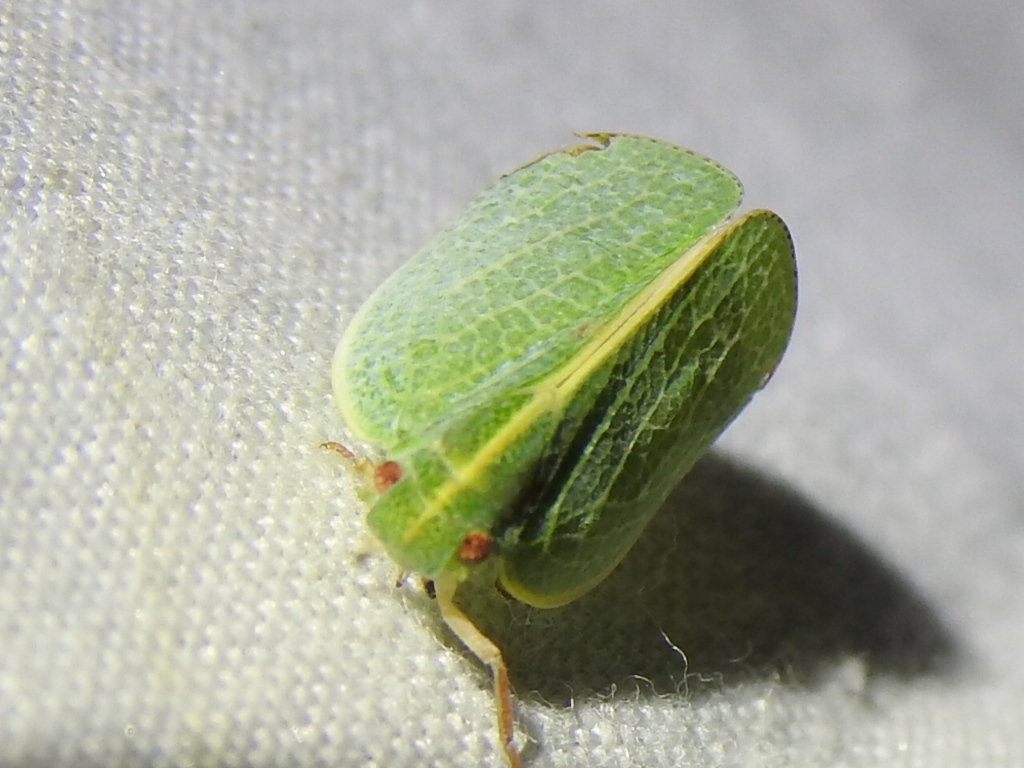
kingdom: Animalia
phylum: Arthropoda
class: Insecta
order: Hemiptera
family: Acanaloniidae
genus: Acanalonia
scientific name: Acanalonia servillei
